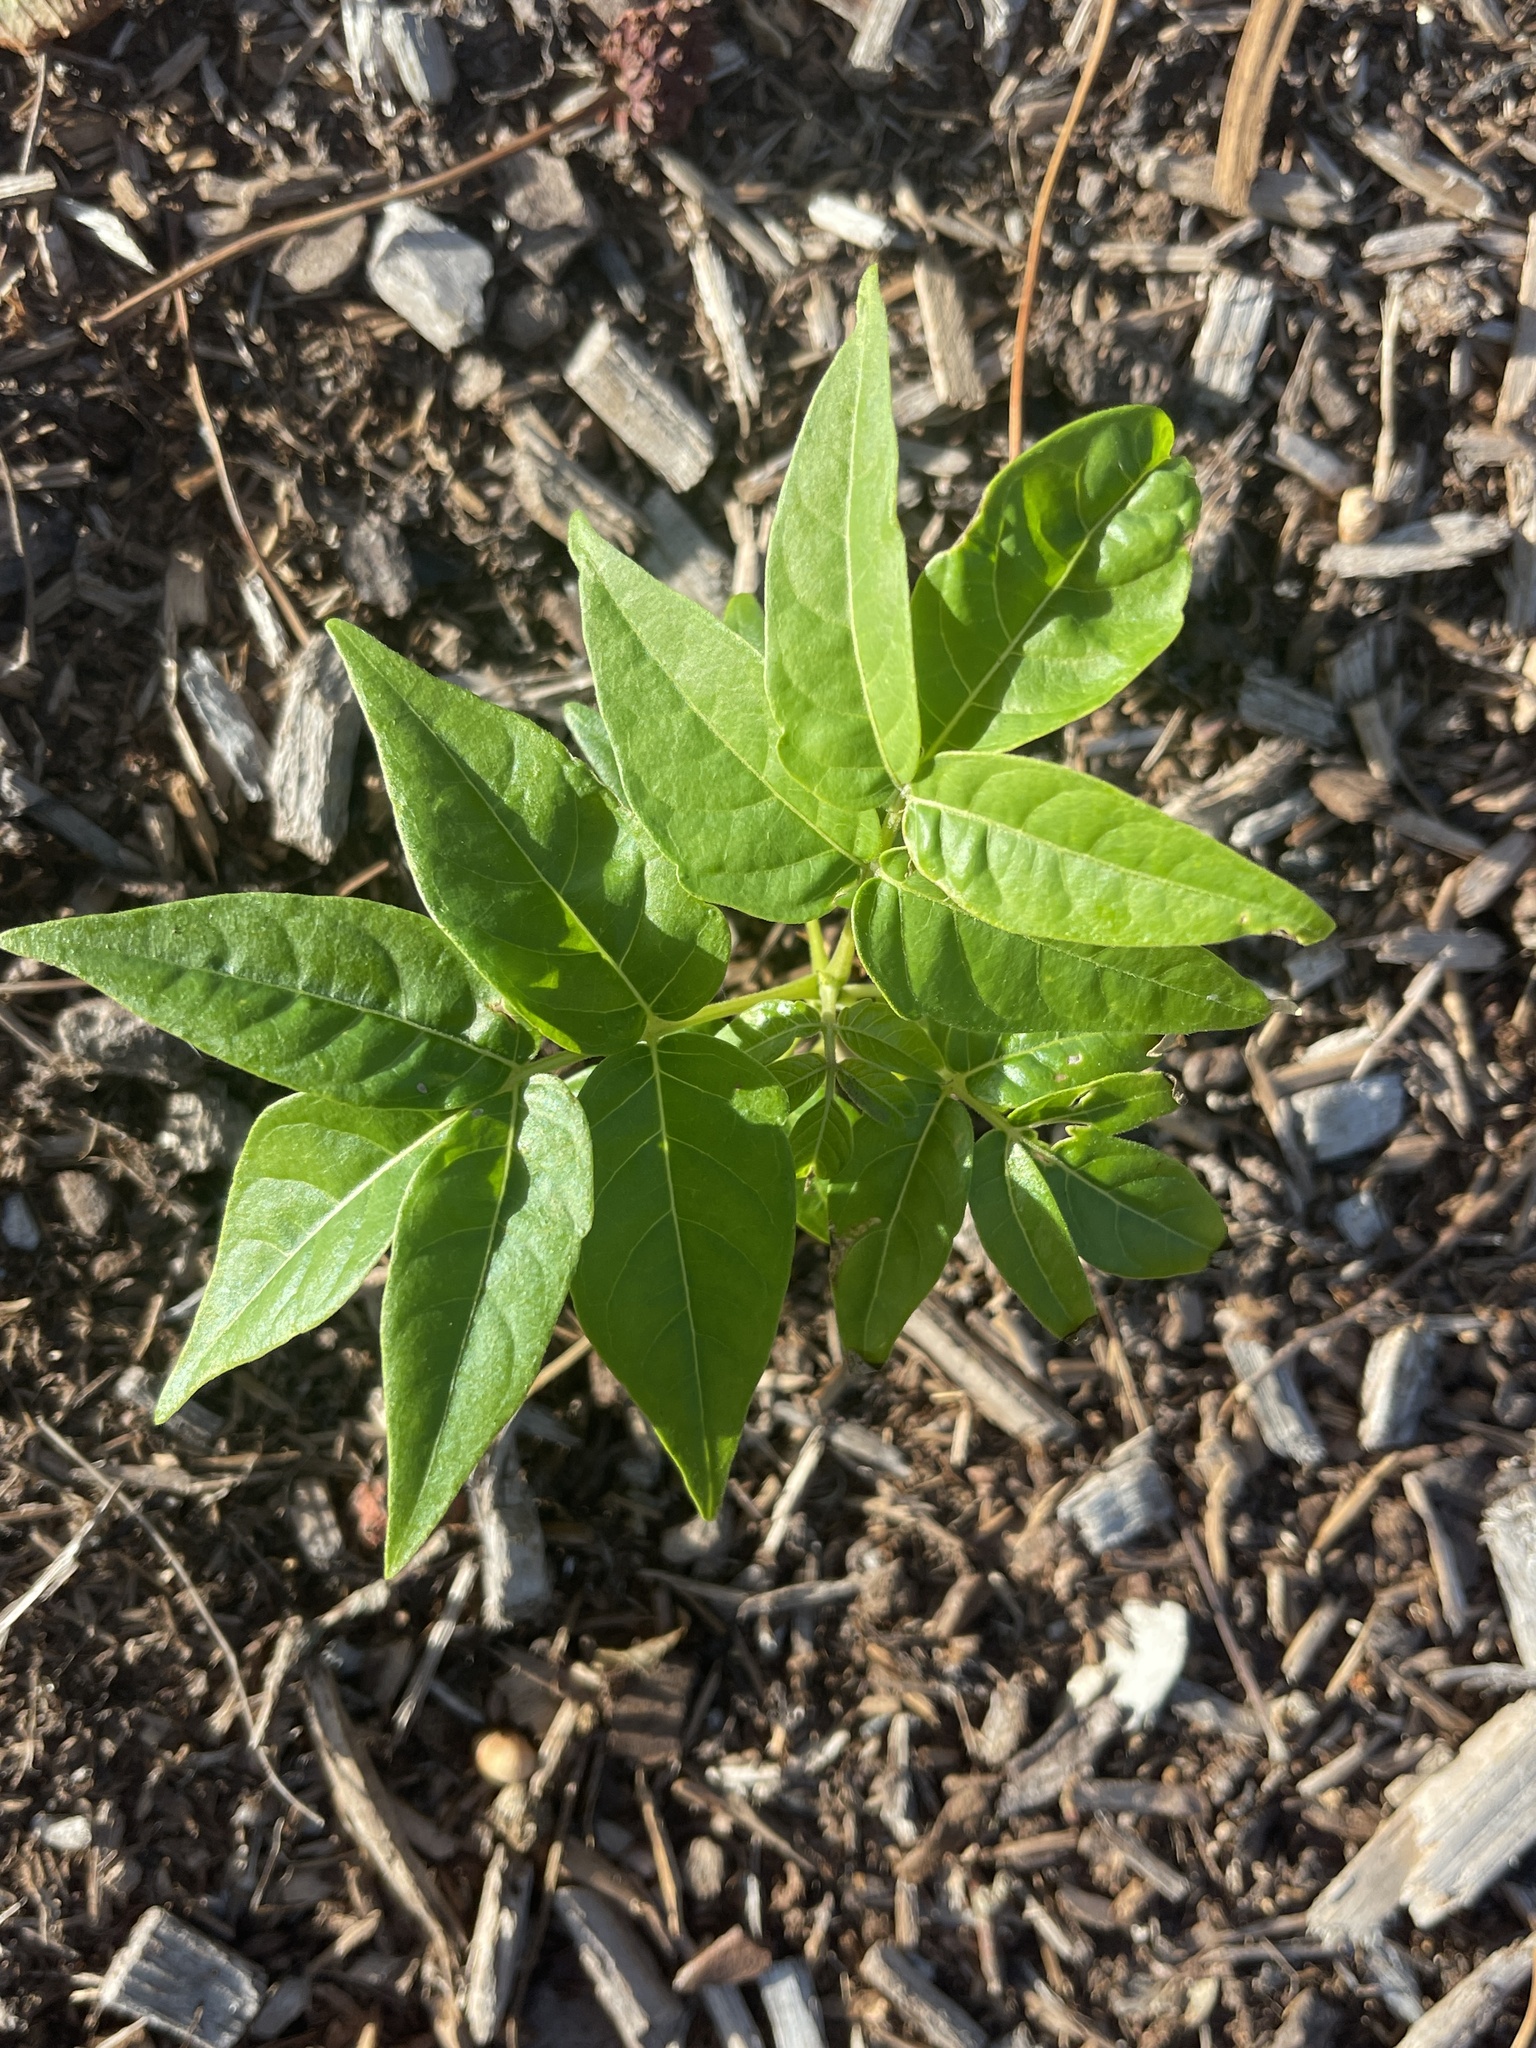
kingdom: Plantae
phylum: Tracheophyta
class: Magnoliopsida
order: Sapindales
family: Simaroubaceae
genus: Ailanthus
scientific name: Ailanthus altissima
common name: Tree-of-heaven
